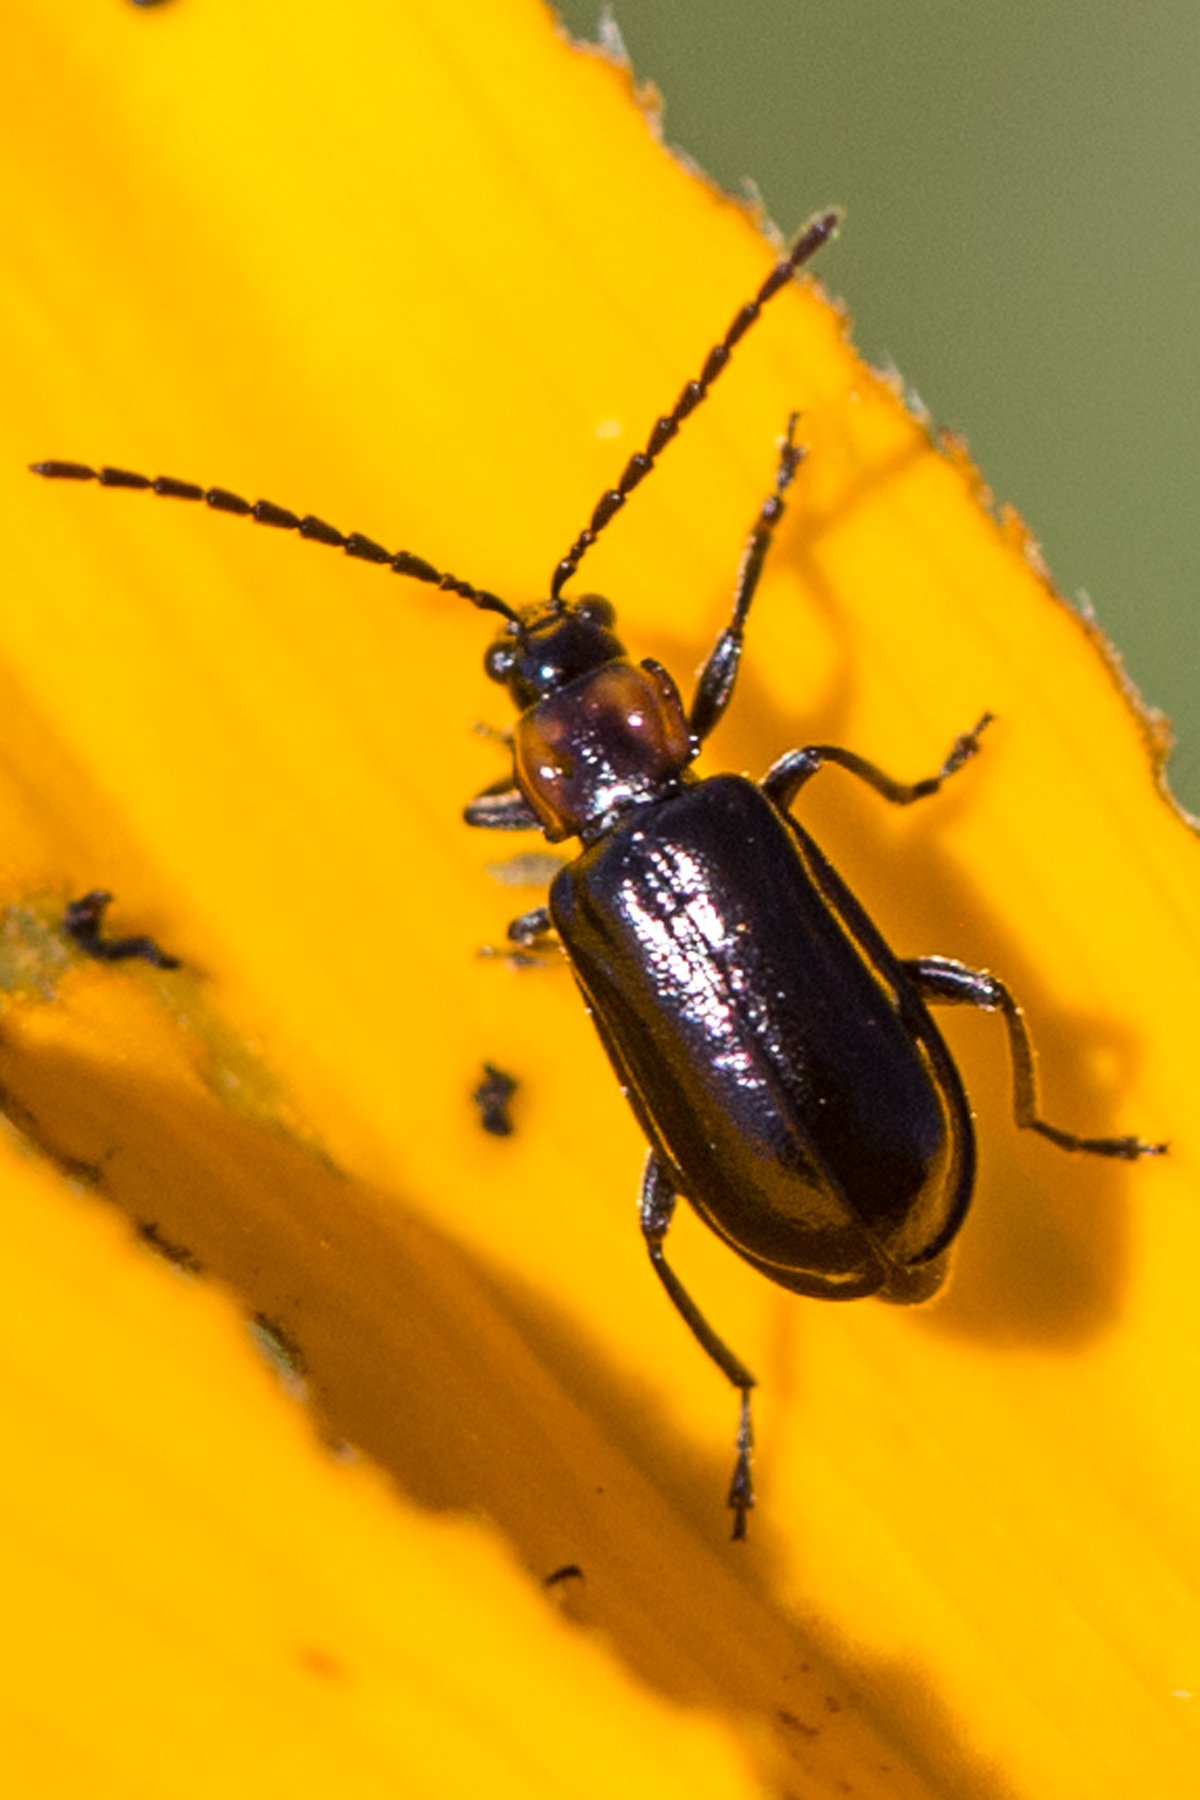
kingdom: Animalia
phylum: Arthropoda
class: Insecta
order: Coleoptera
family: Chrysomelidae
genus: Diabrotica
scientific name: Diabrotica cristata
